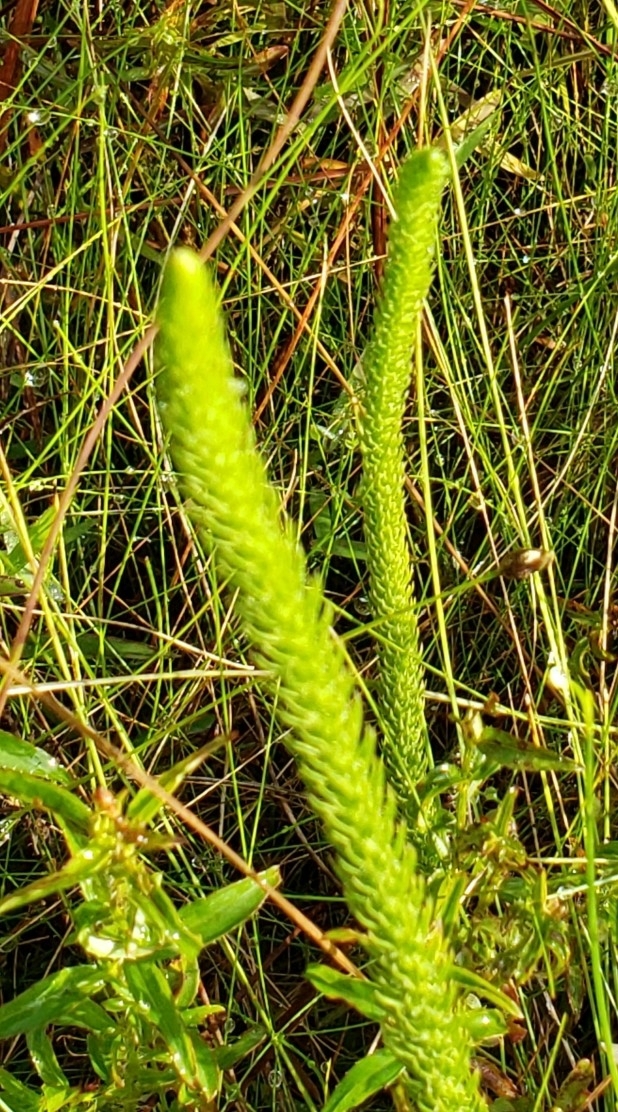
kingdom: Plantae
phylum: Tracheophyta
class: Lycopodiopsida
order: Lycopodiales
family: Lycopodiaceae
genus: Lycopodiella
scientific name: Lycopodiella alopecuroides
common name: Foxtail clubmoss
